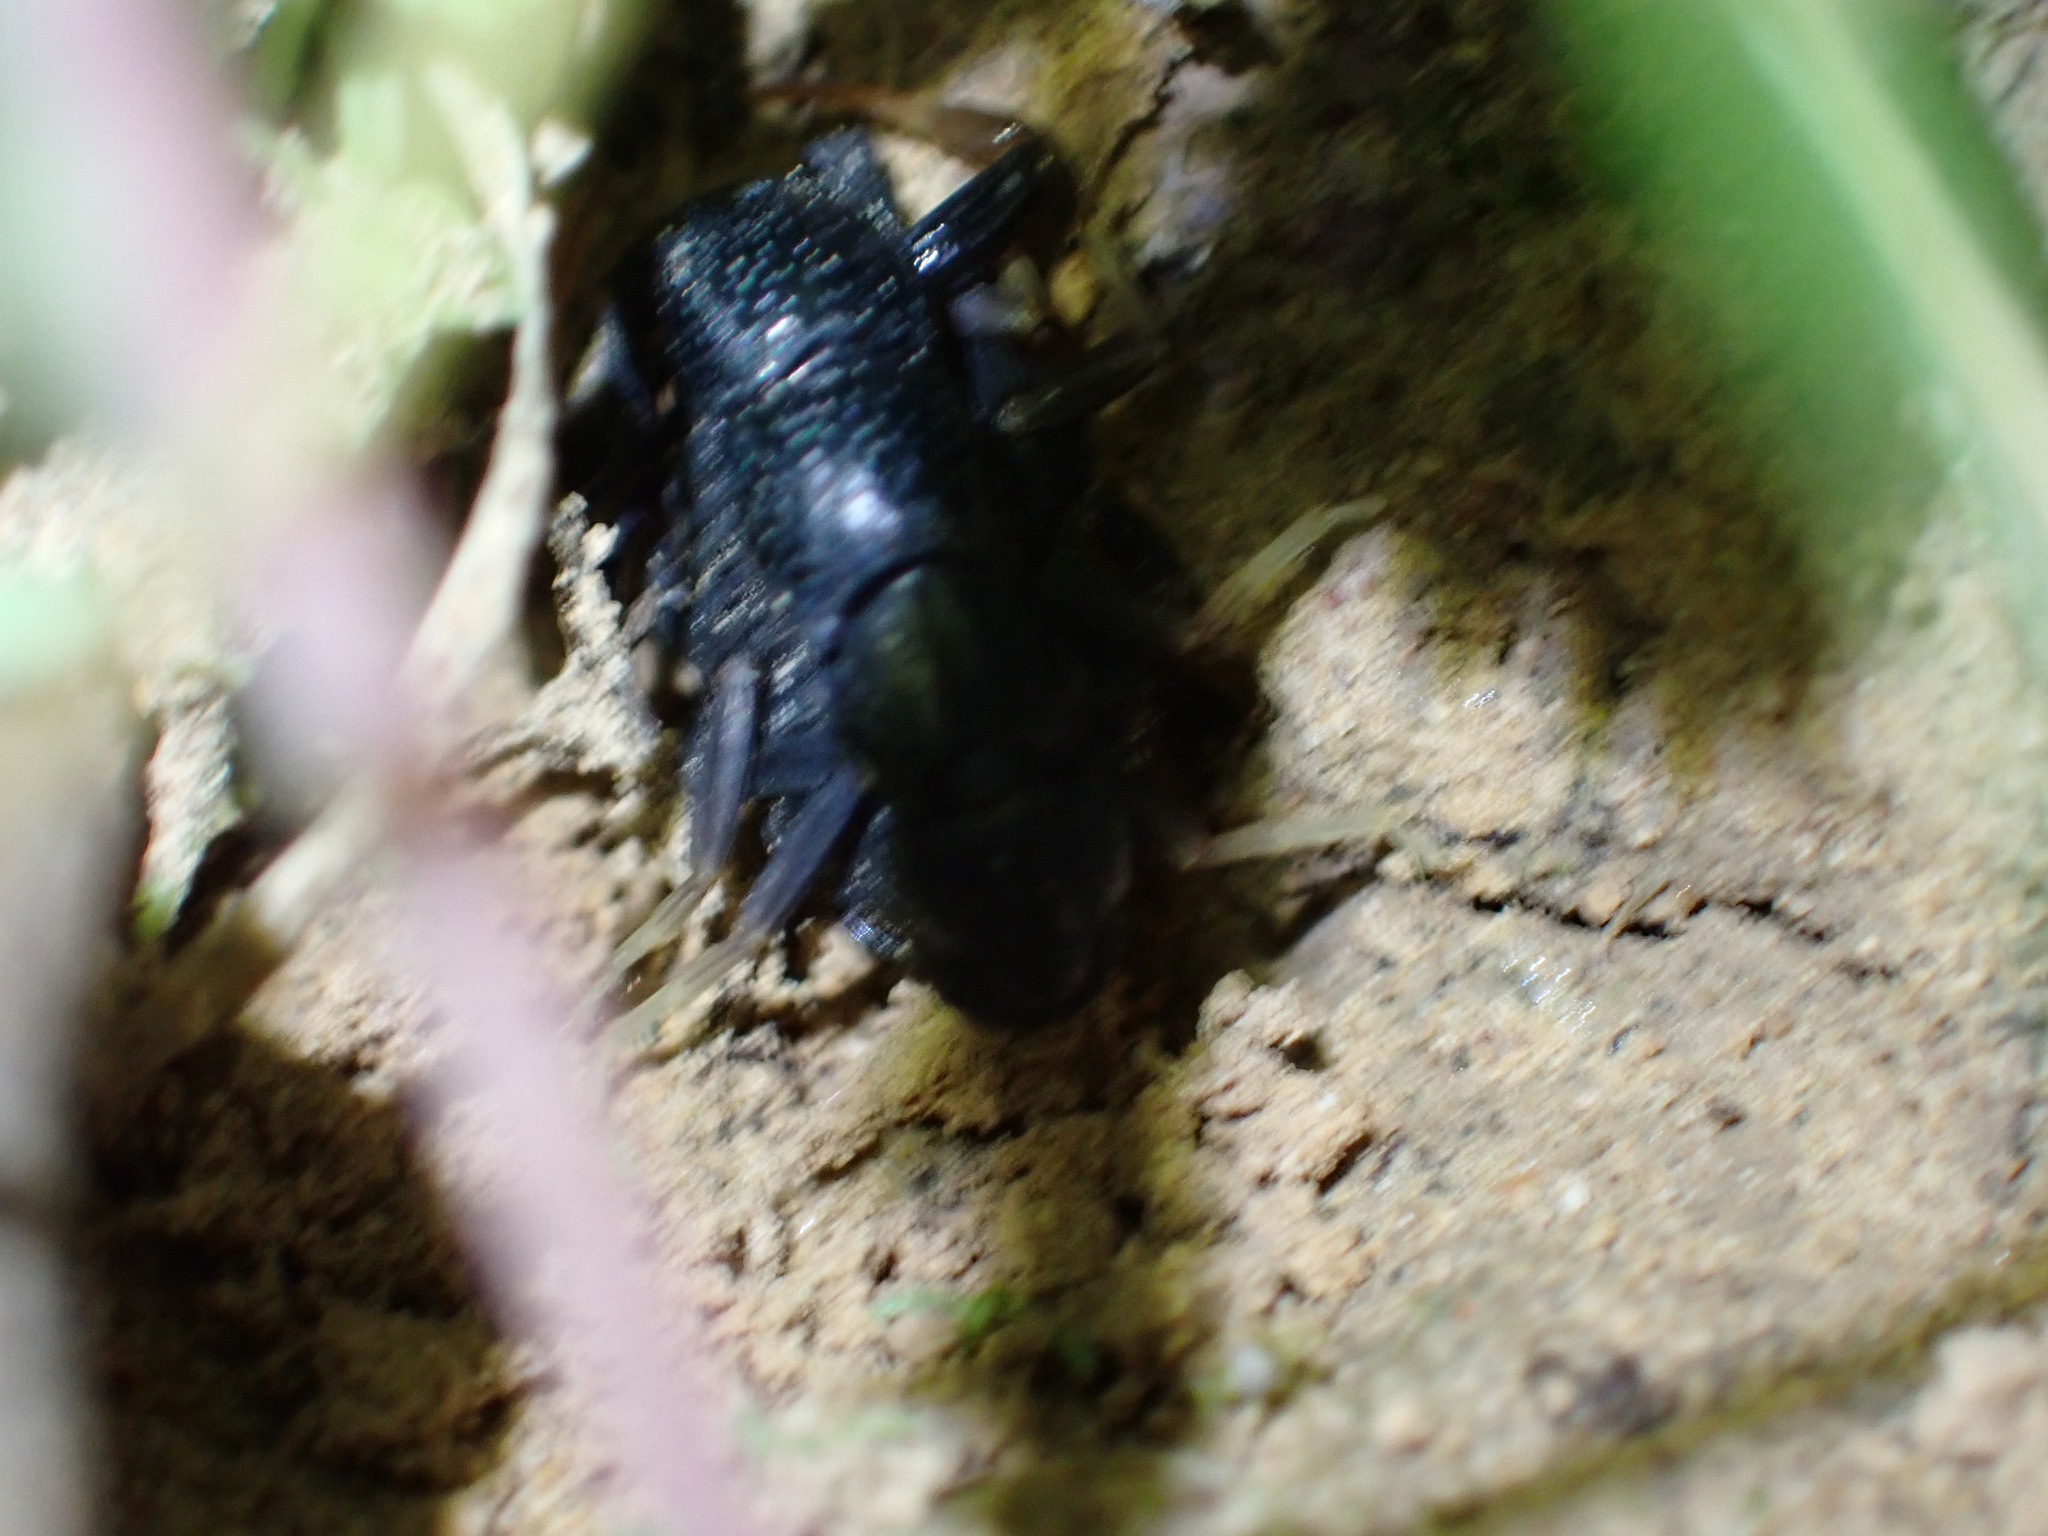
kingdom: Animalia
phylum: Arthropoda
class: Arachnida
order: Scorpiones
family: Buthidae
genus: Orthochirus
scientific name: Orthochirus mesopotamicus
